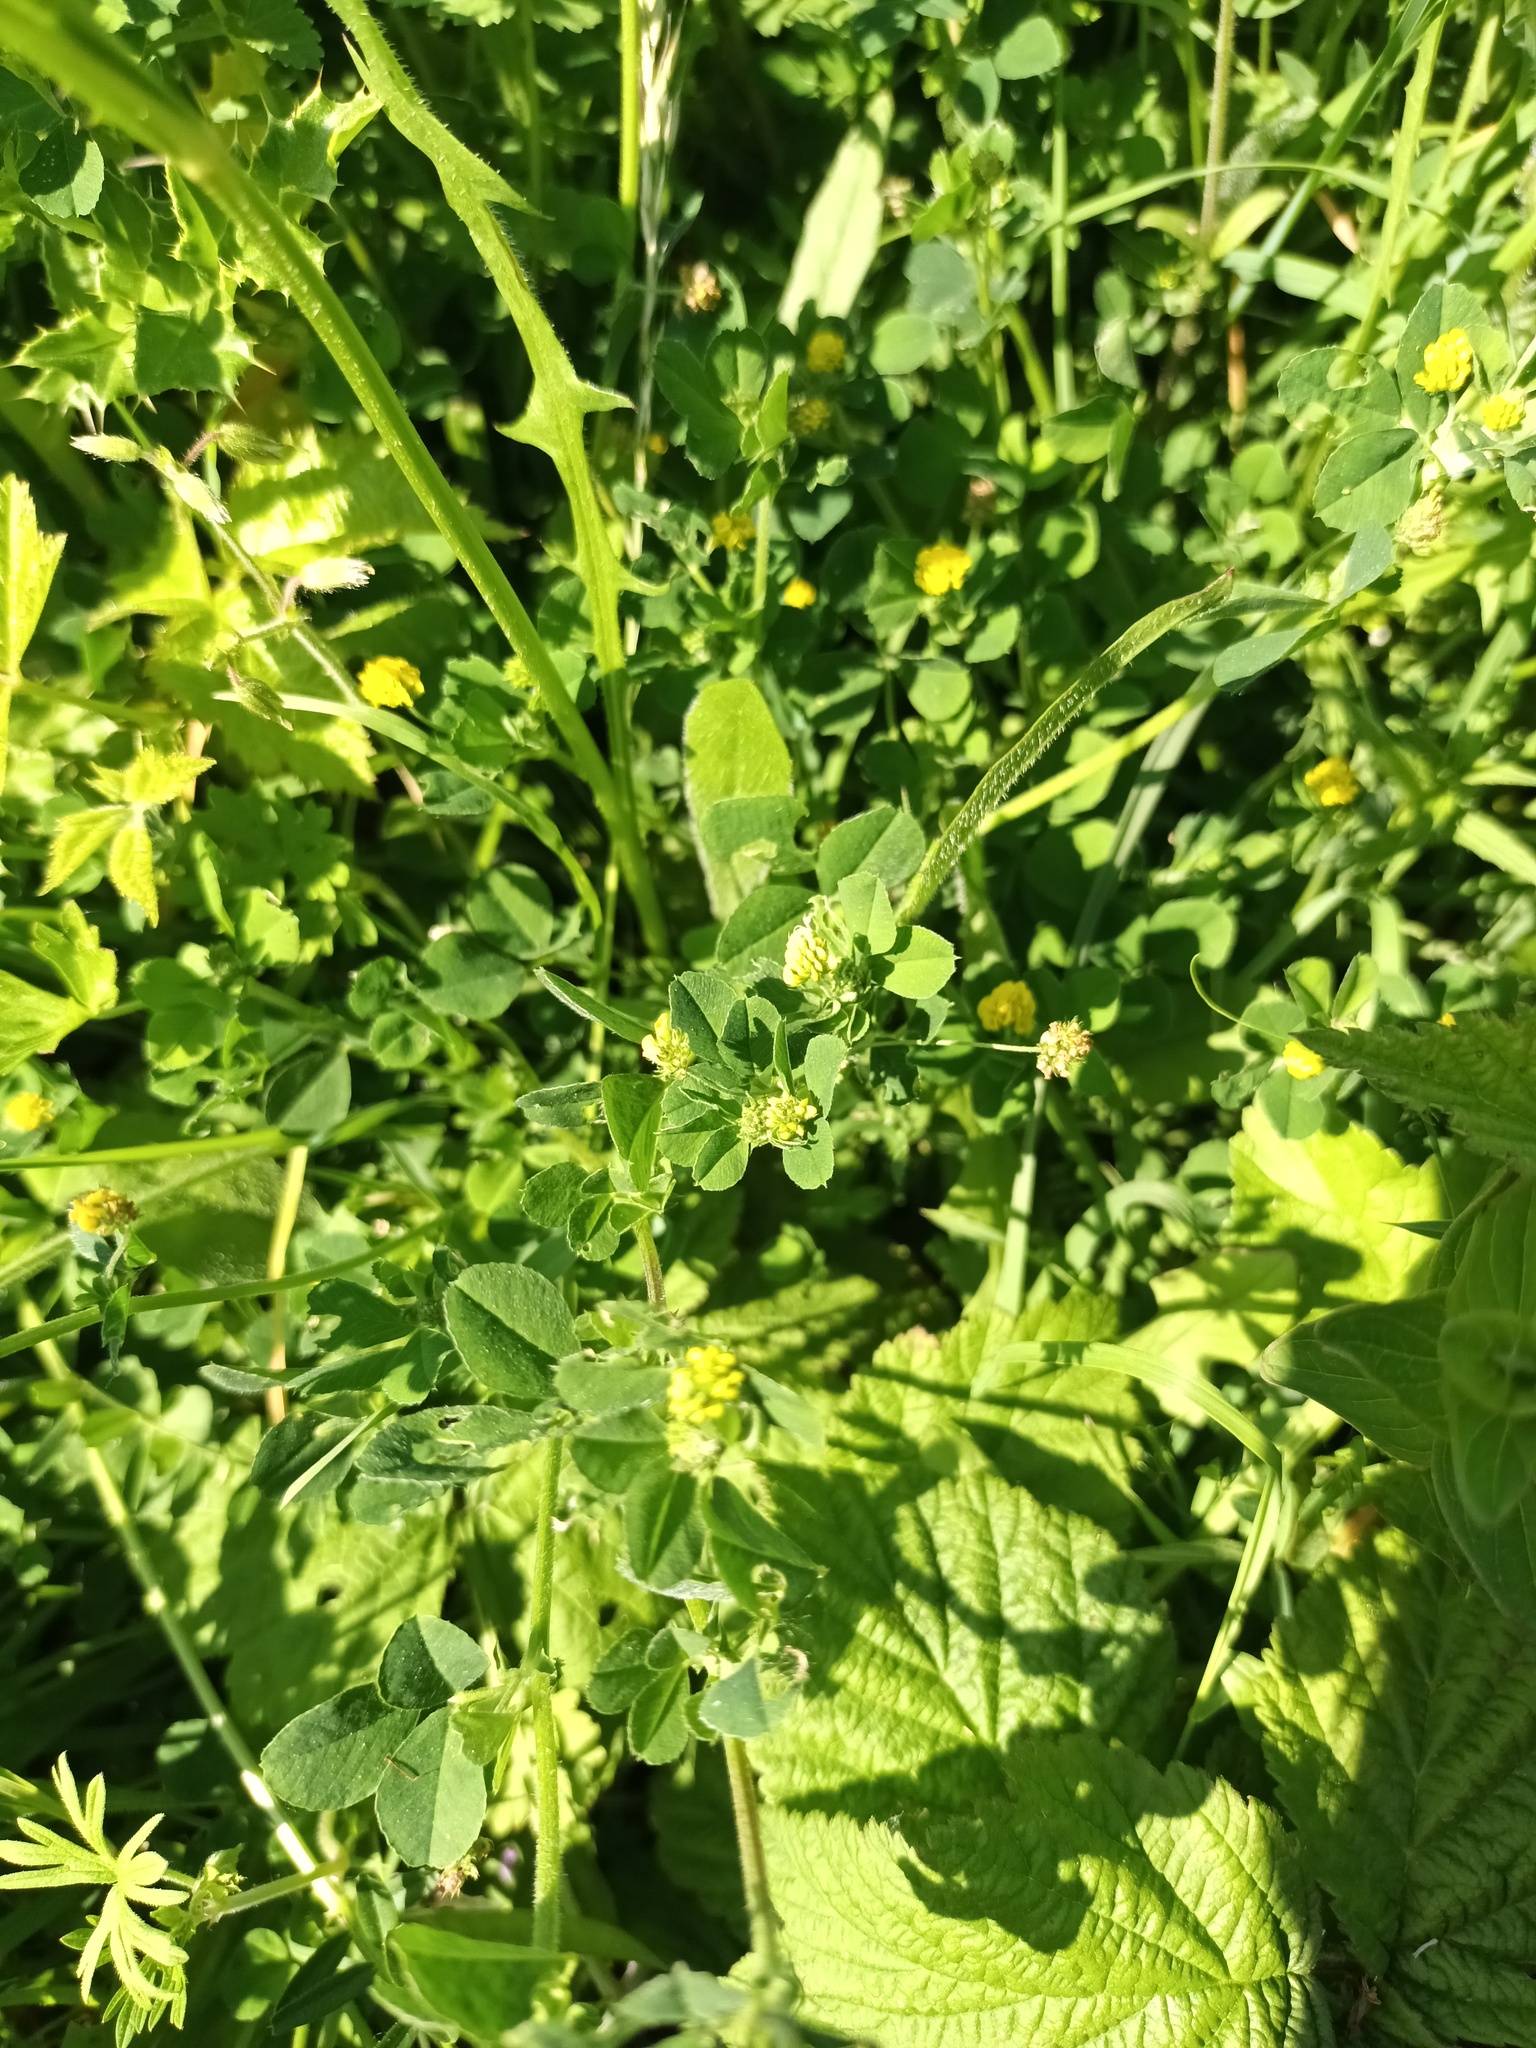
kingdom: Plantae
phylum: Tracheophyta
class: Magnoliopsida
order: Fabales
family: Fabaceae
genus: Medicago
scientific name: Medicago lupulina
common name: Black medick
